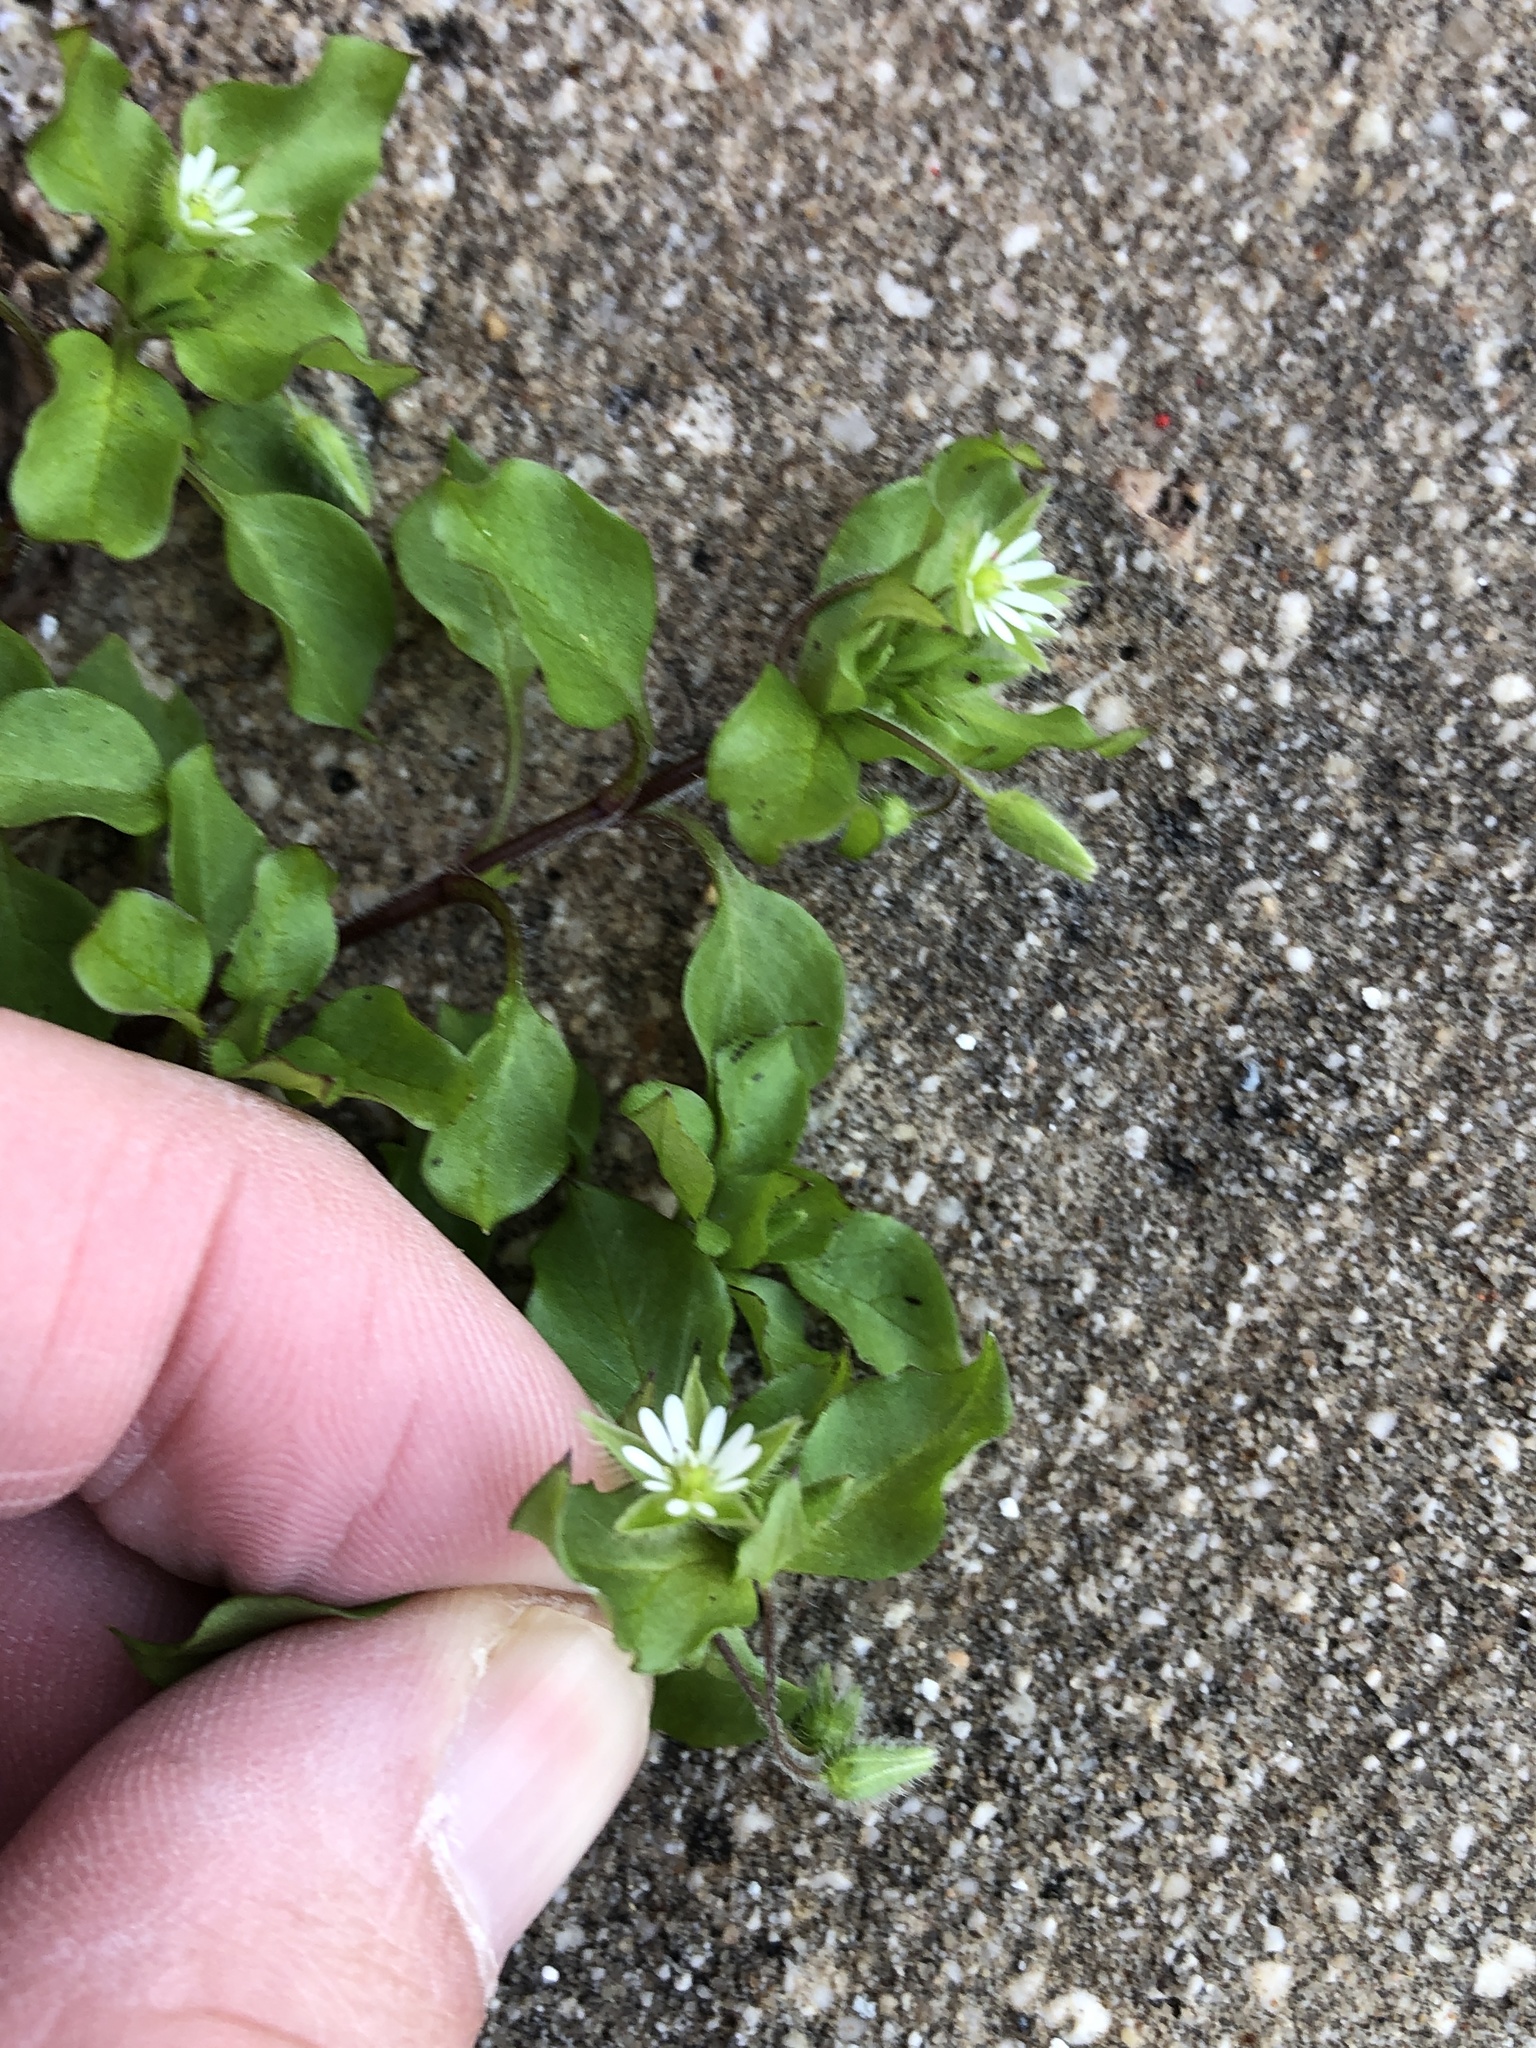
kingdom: Plantae
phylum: Tracheophyta
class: Magnoliopsida
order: Caryophyllales
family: Caryophyllaceae
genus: Stellaria
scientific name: Stellaria media
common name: Common chickweed
